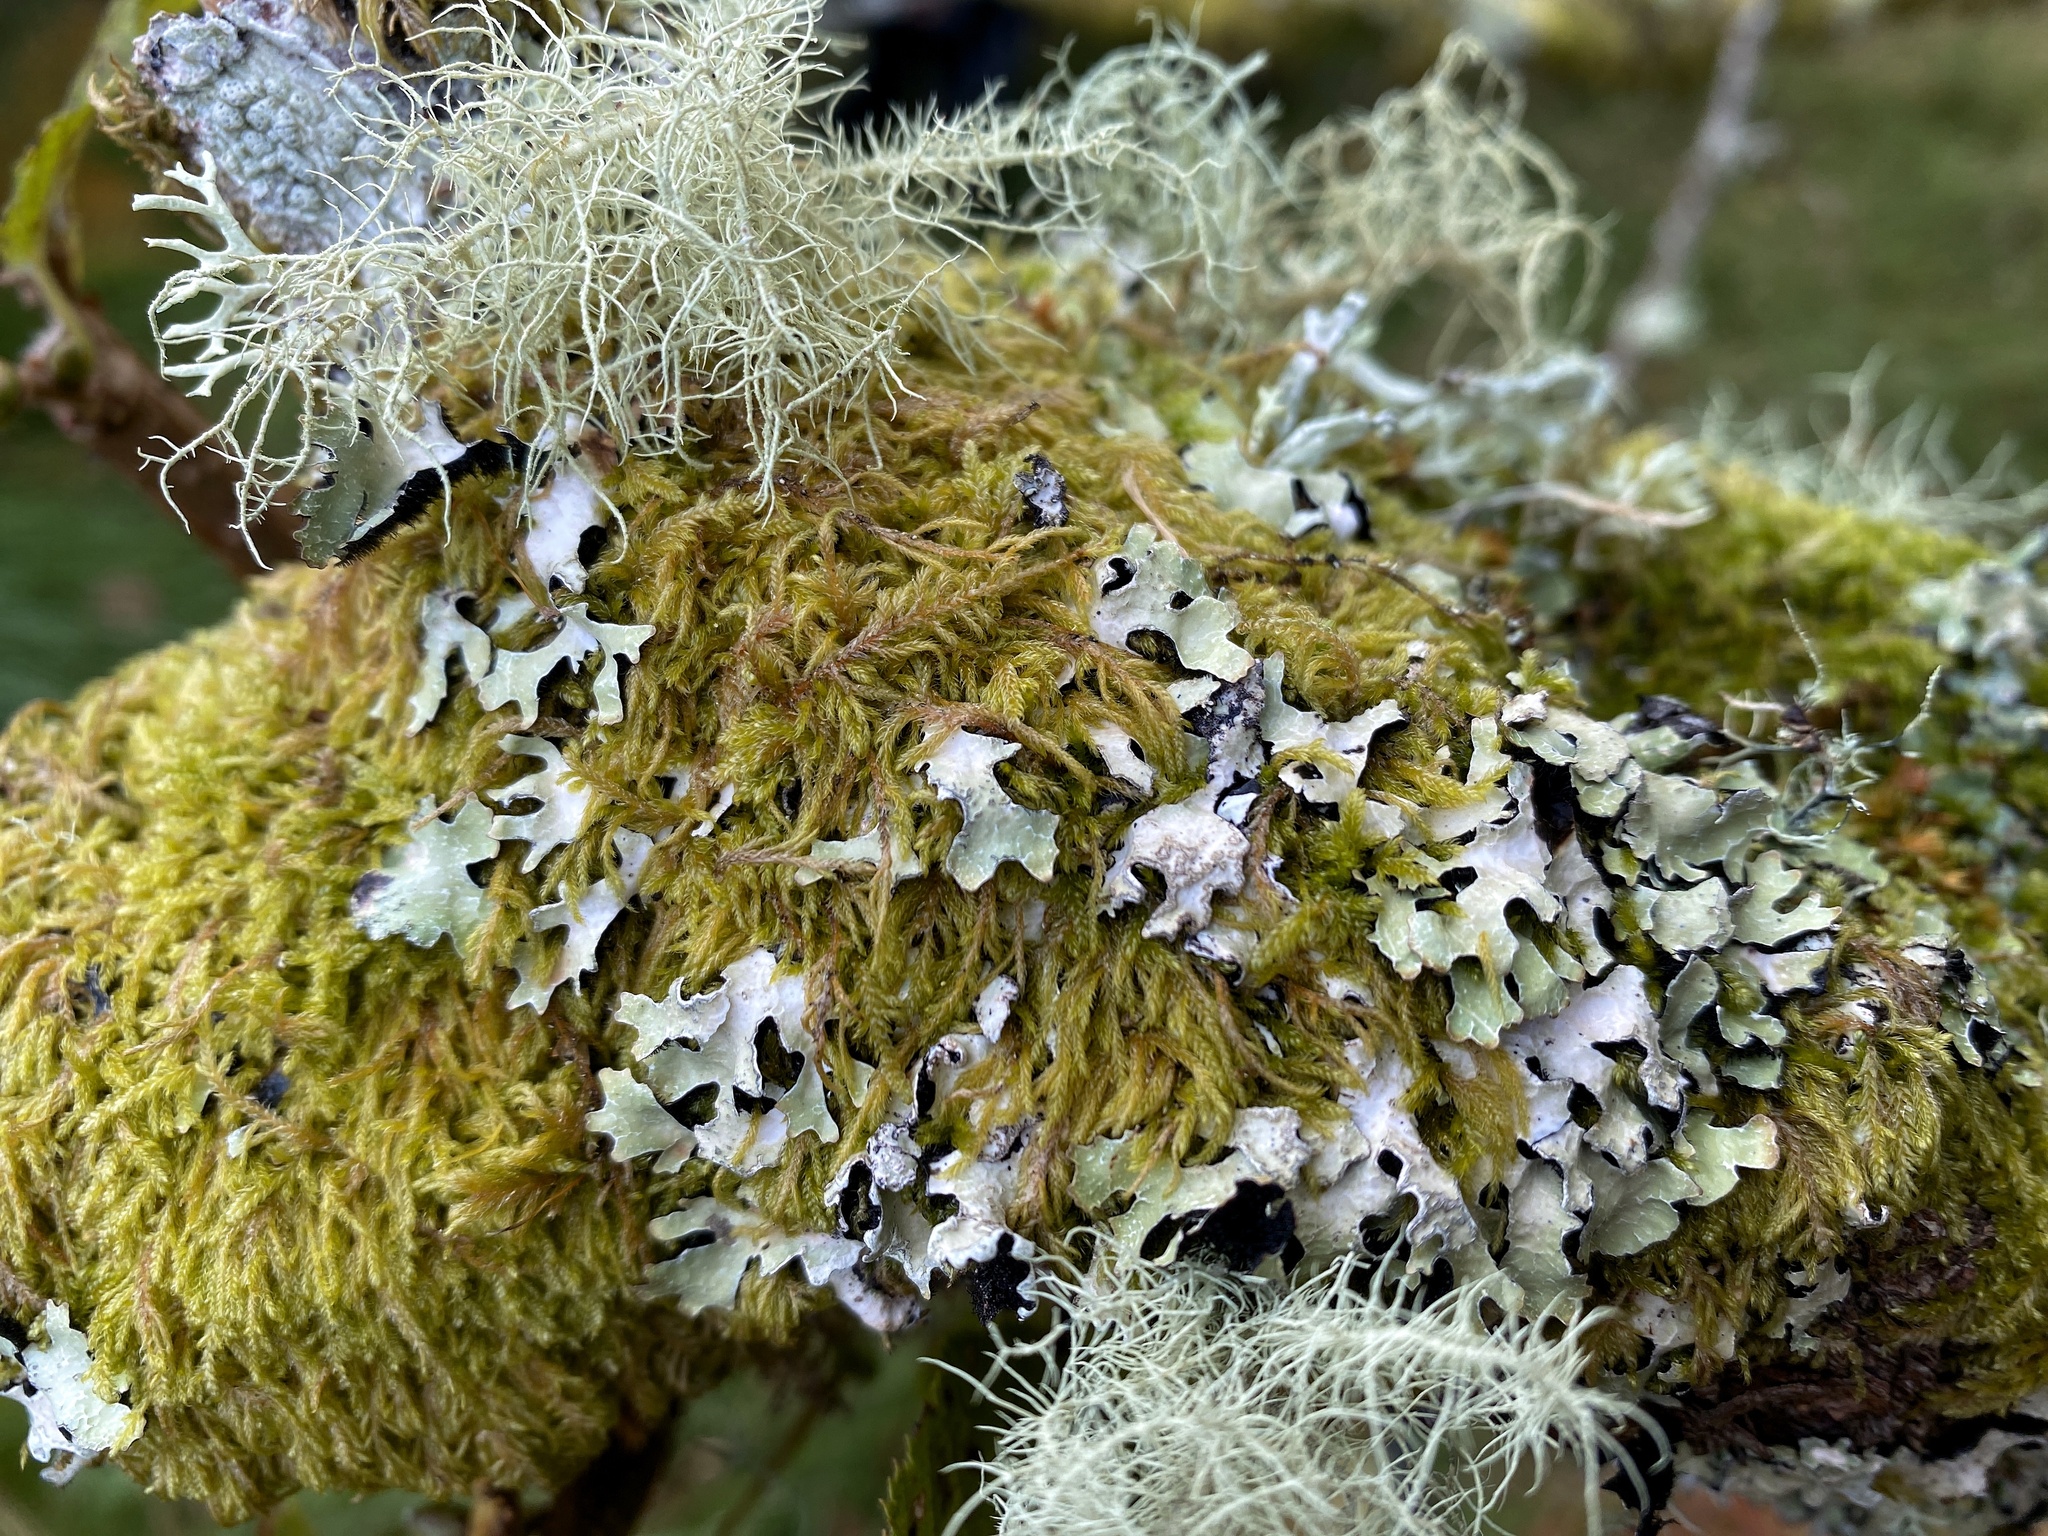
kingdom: Fungi
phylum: Ascomycota
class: Lecanoromycetes
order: Lecanorales
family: Parmeliaceae
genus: Parmelia
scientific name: Parmelia sulcata
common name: Netted shield lichen
